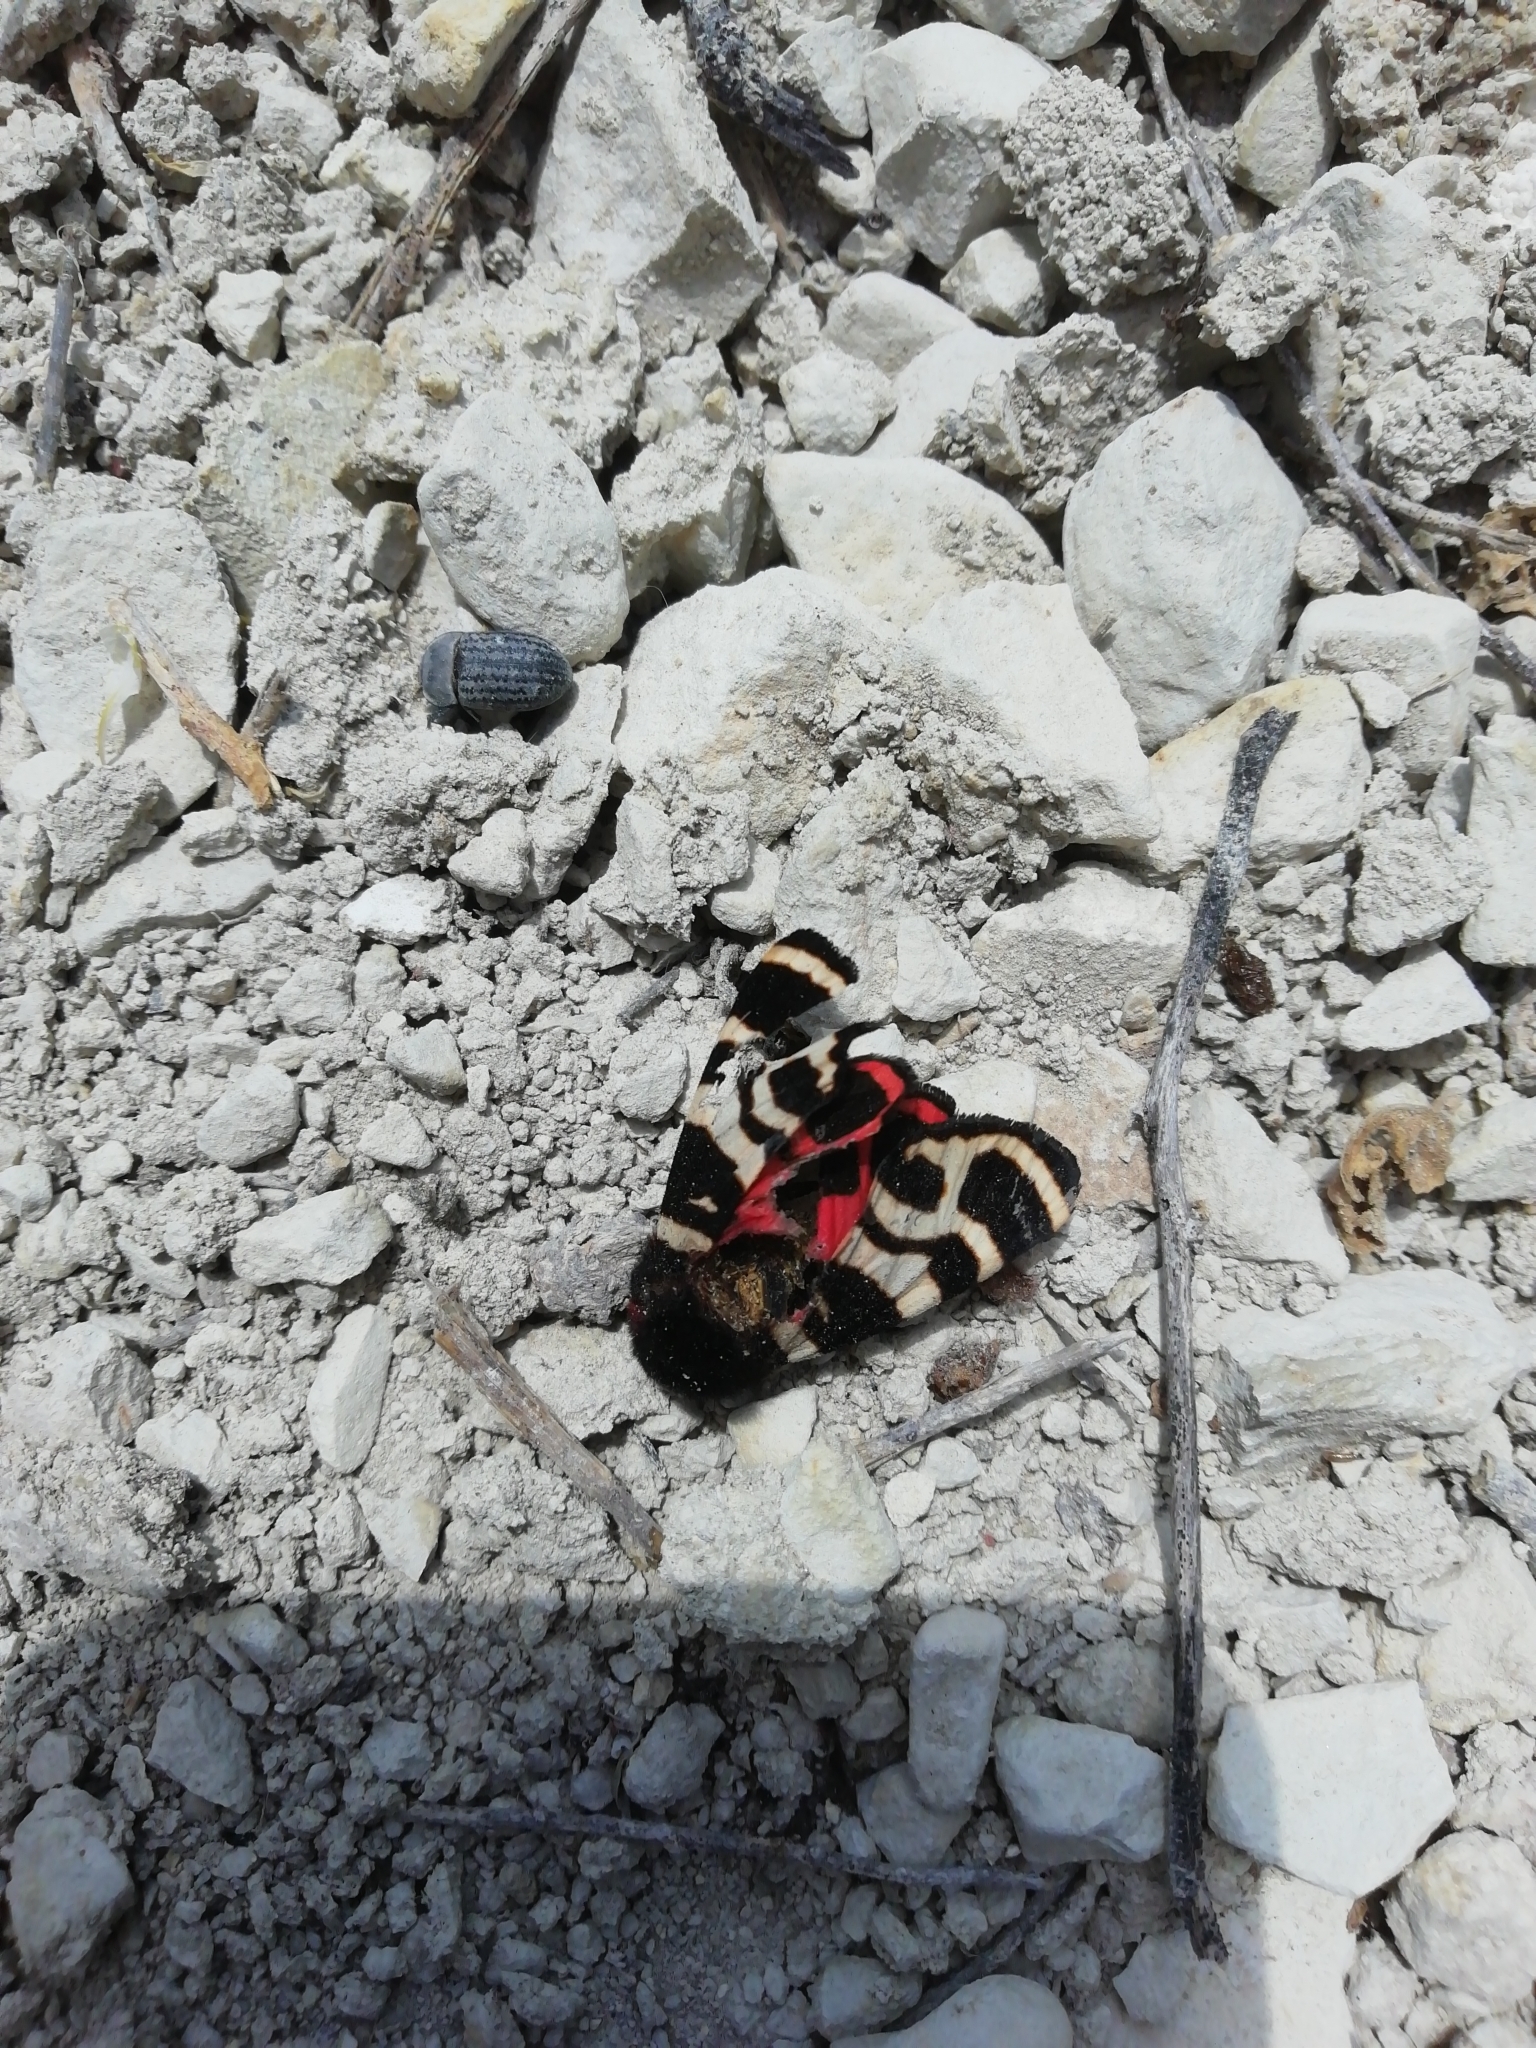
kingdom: Animalia
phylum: Arthropoda
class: Insecta
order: Lepidoptera
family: Erebidae
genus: Eucharia
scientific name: Eucharia festiva
